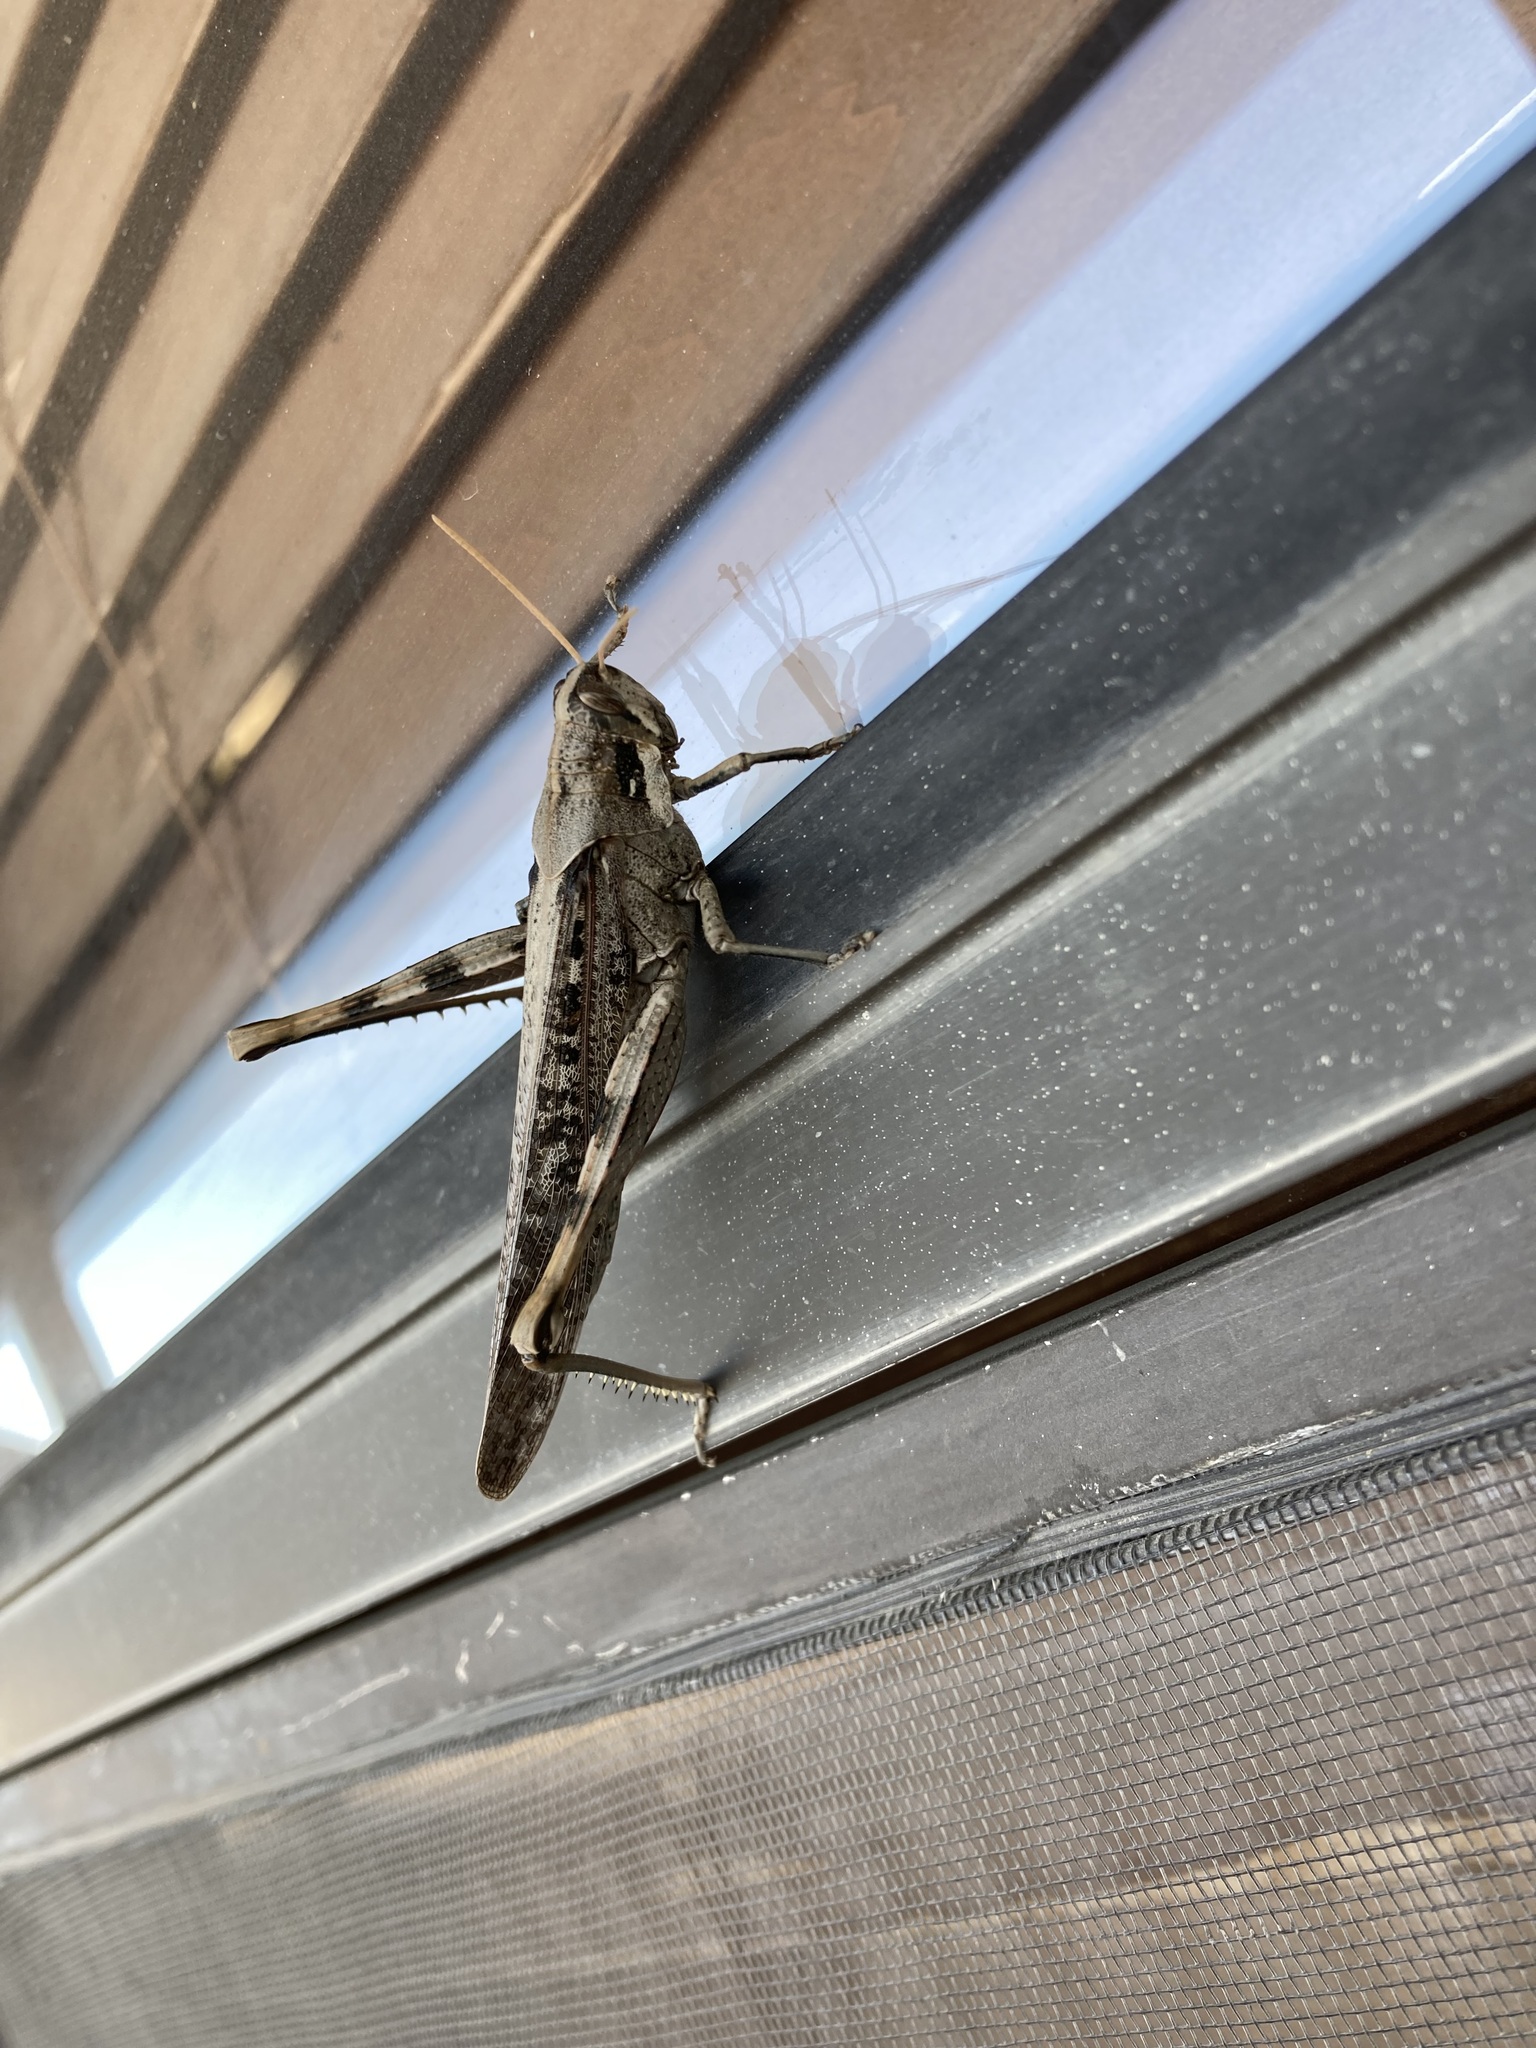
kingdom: Animalia
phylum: Arthropoda
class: Insecta
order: Orthoptera
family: Acrididae
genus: Schistocerca
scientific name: Schistocerca nitens
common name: Vagrant grasshopper
